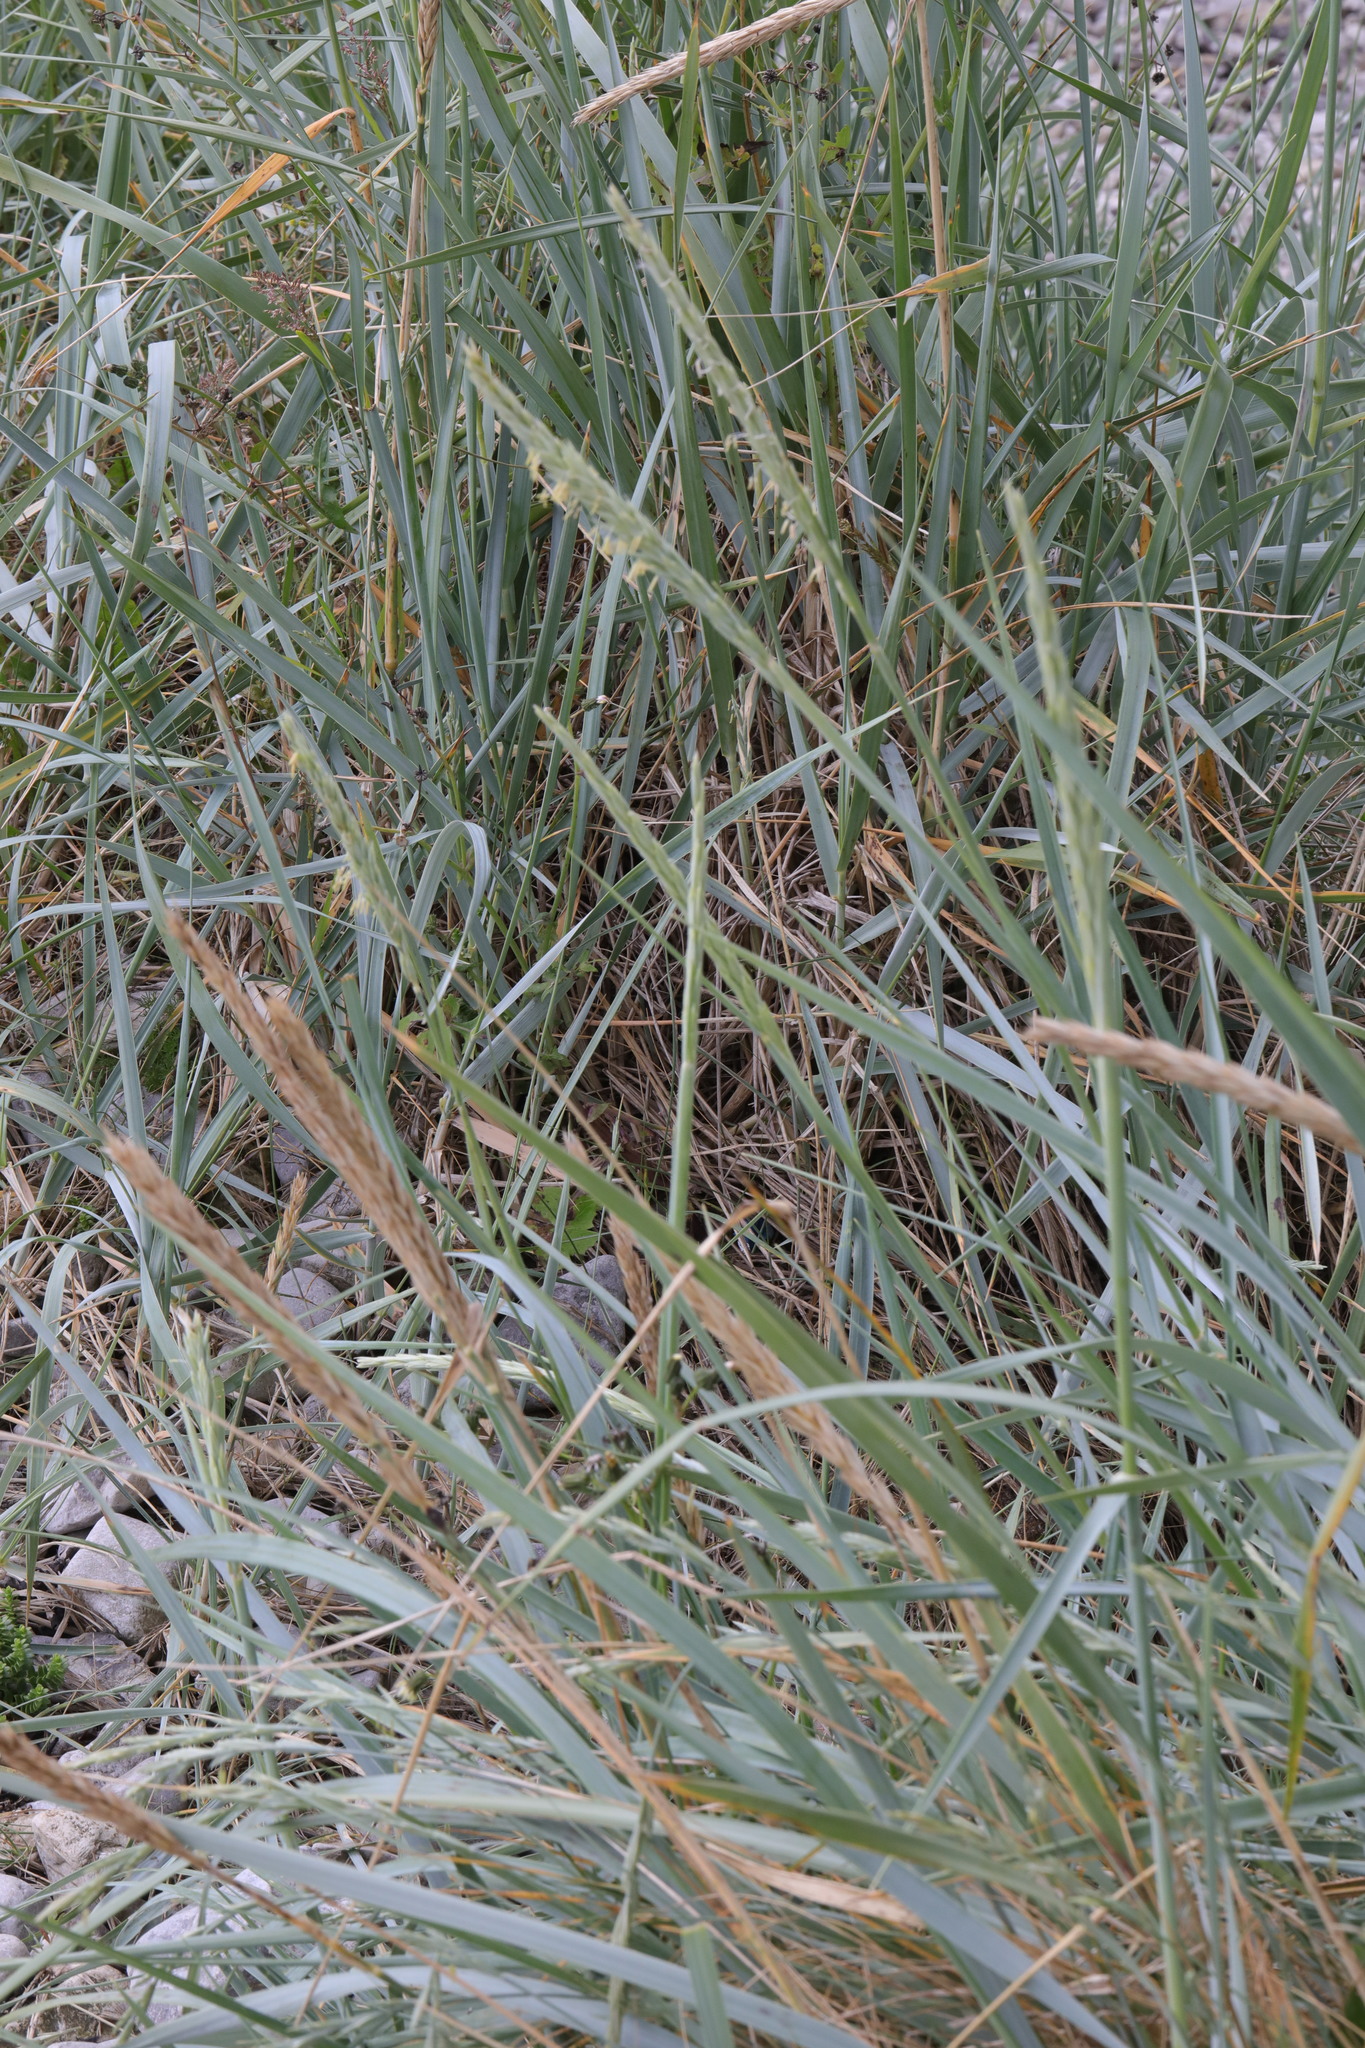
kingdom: Plantae
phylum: Tracheophyta
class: Liliopsida
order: Poales
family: Poaceae
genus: Leymus
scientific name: Leymus arenarius
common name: Lyme-grass
